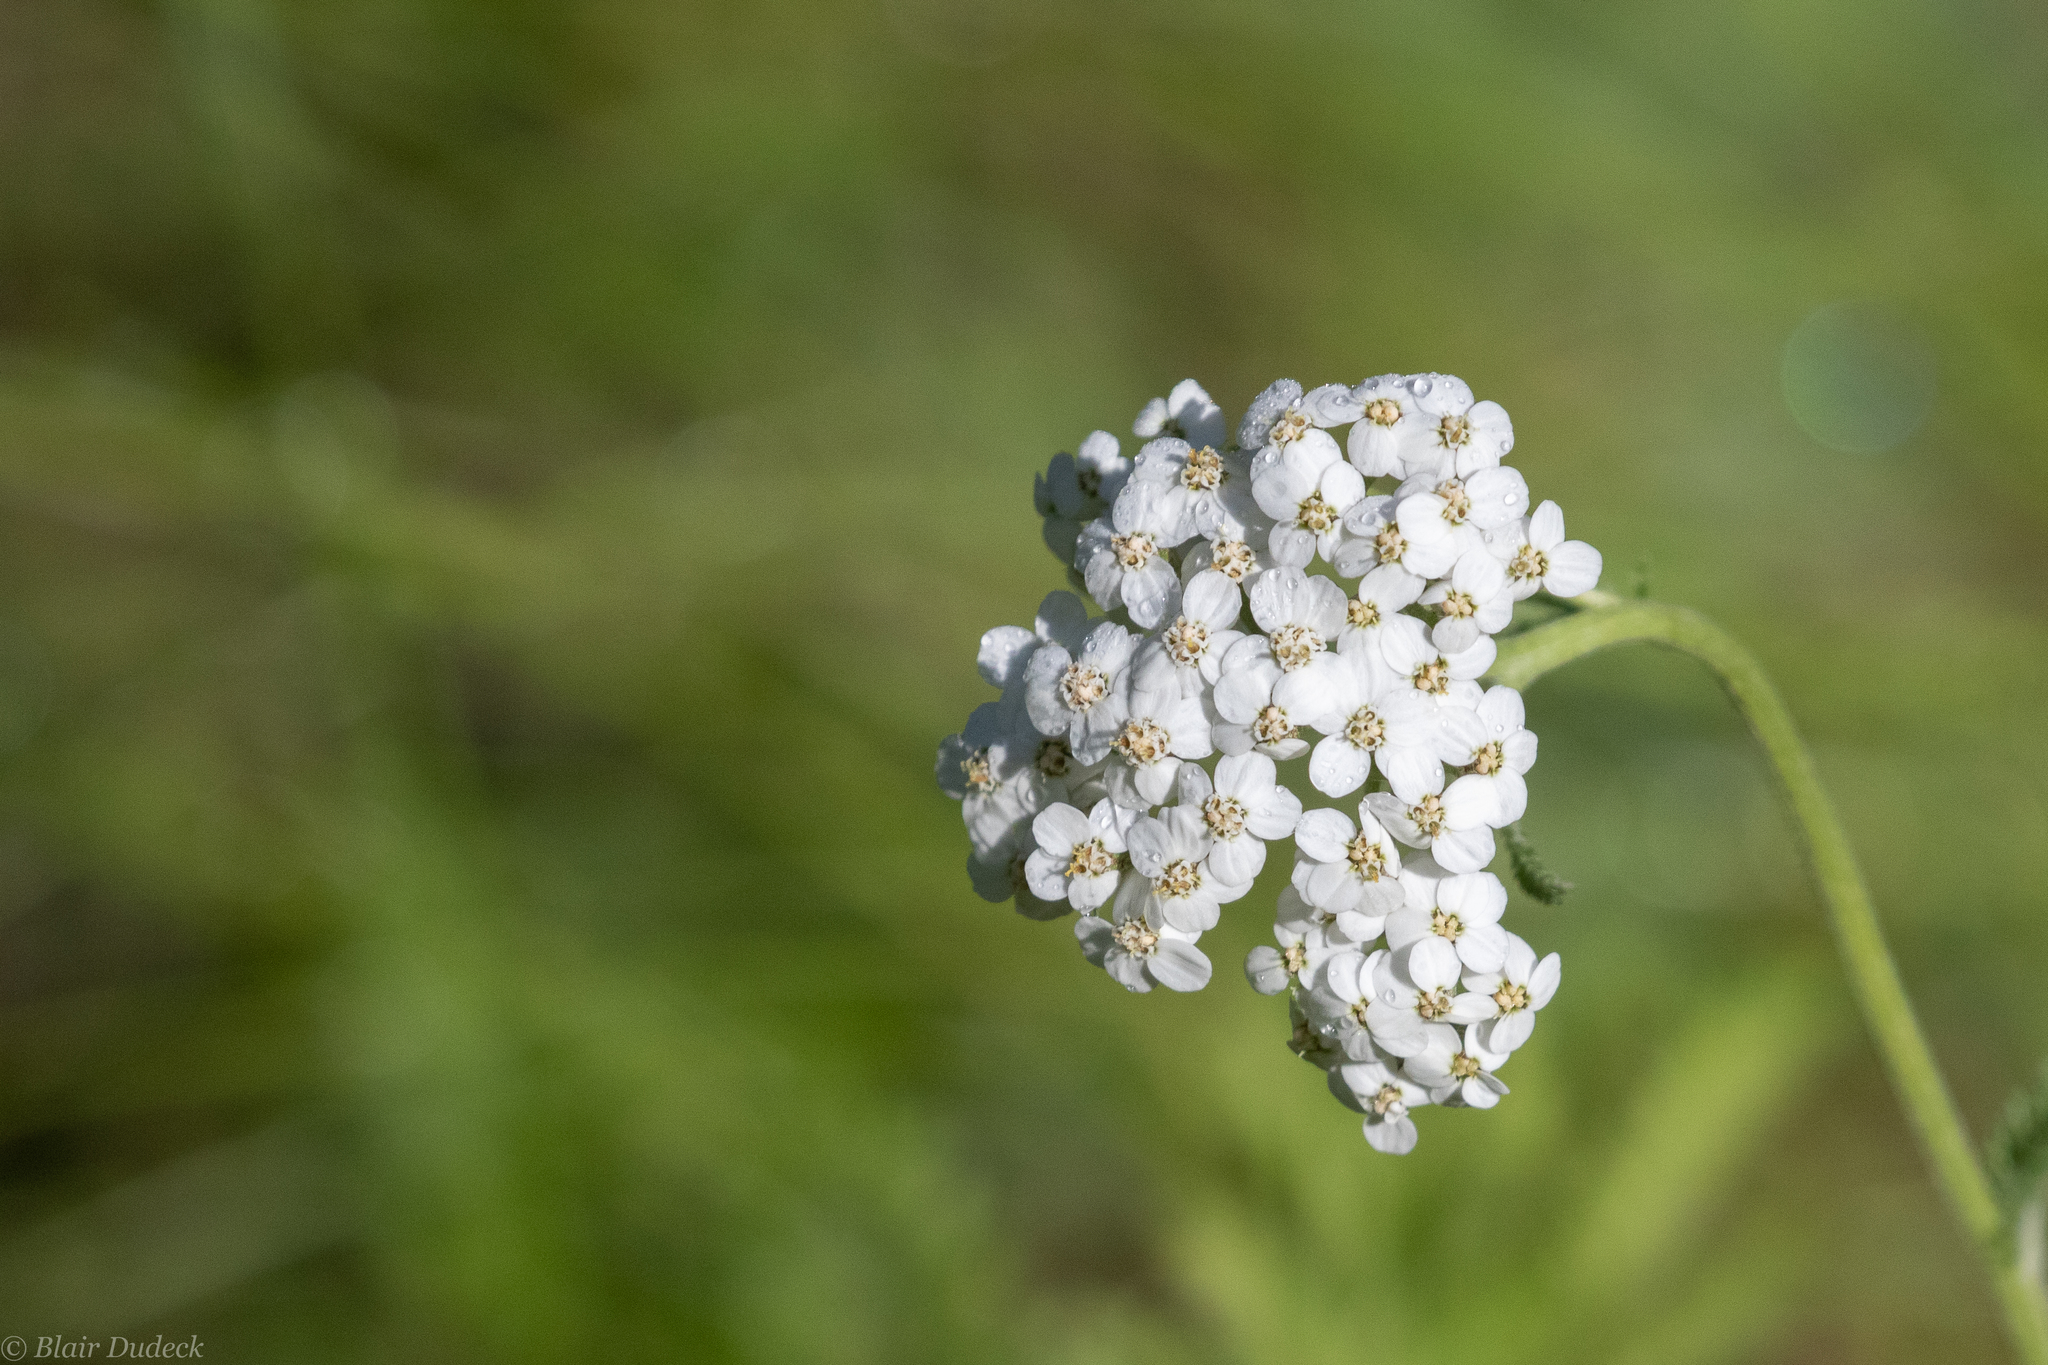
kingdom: Plantae
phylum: Tracheophyta
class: Magnoliopsida
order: Asterales
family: Asteraceae
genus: Achillea
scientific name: Achillea millefolium
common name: Yarrow
